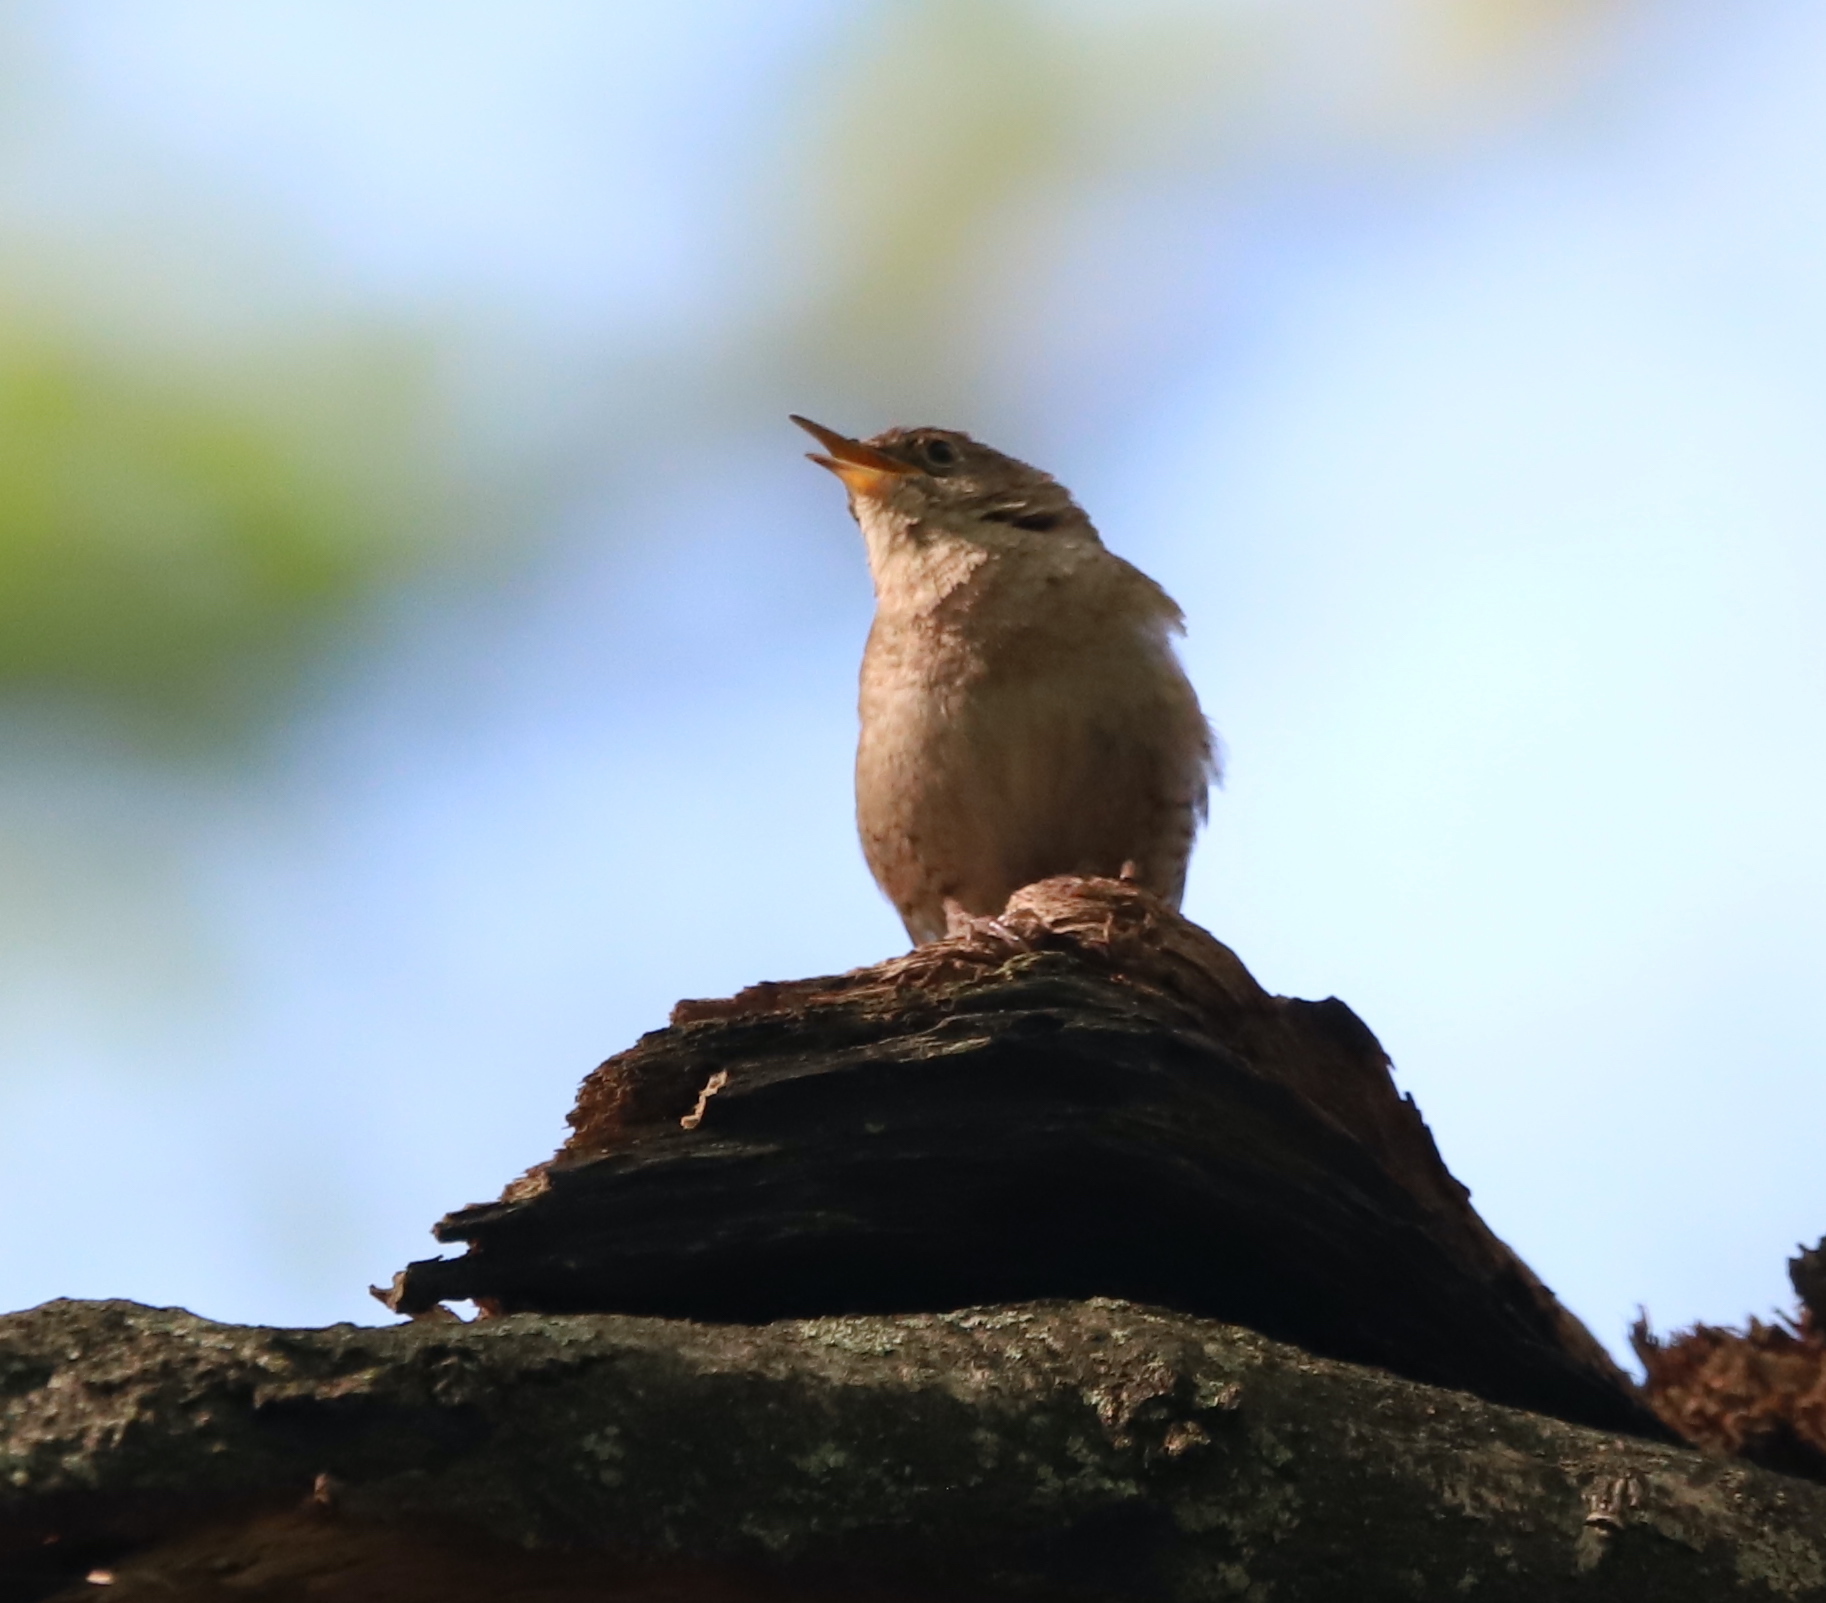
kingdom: Animalia
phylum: Chordata
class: Aves
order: Passeriformes
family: Troglodytidae
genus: Troglodytes
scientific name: Troglodytes aedon
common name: House wren
